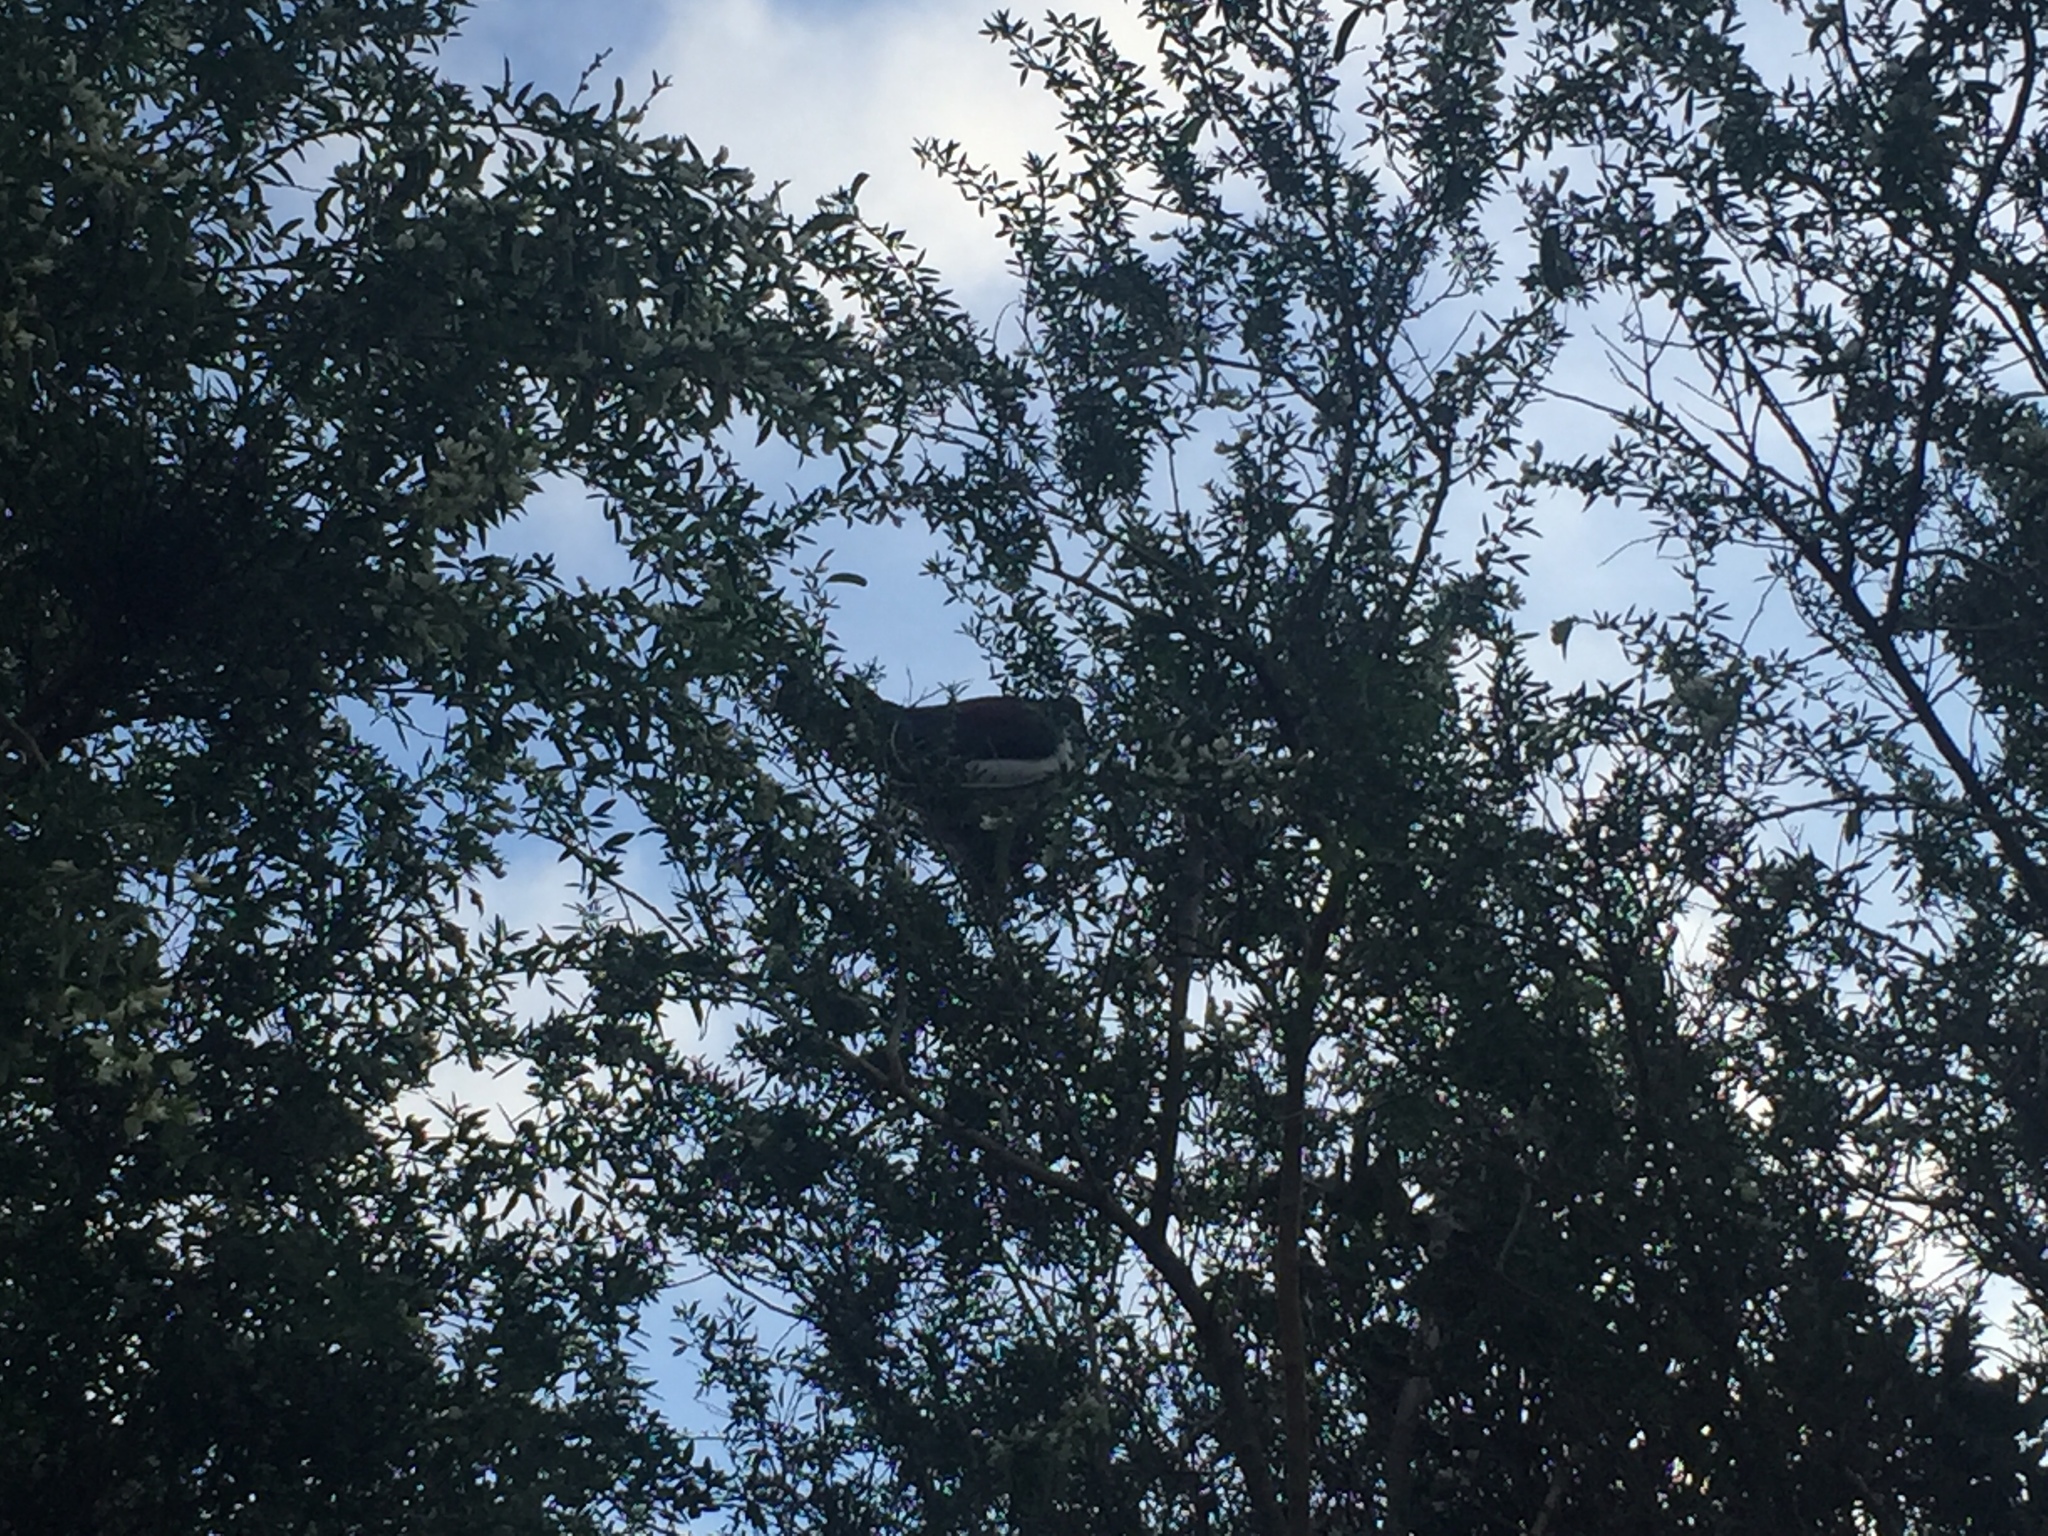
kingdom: Animalia
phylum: Chordata
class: Aves
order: Columbiformes
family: Columbidae
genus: Hemiphaga
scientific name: Hemiphaga novaeseelandiae
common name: New zealand pigeon
